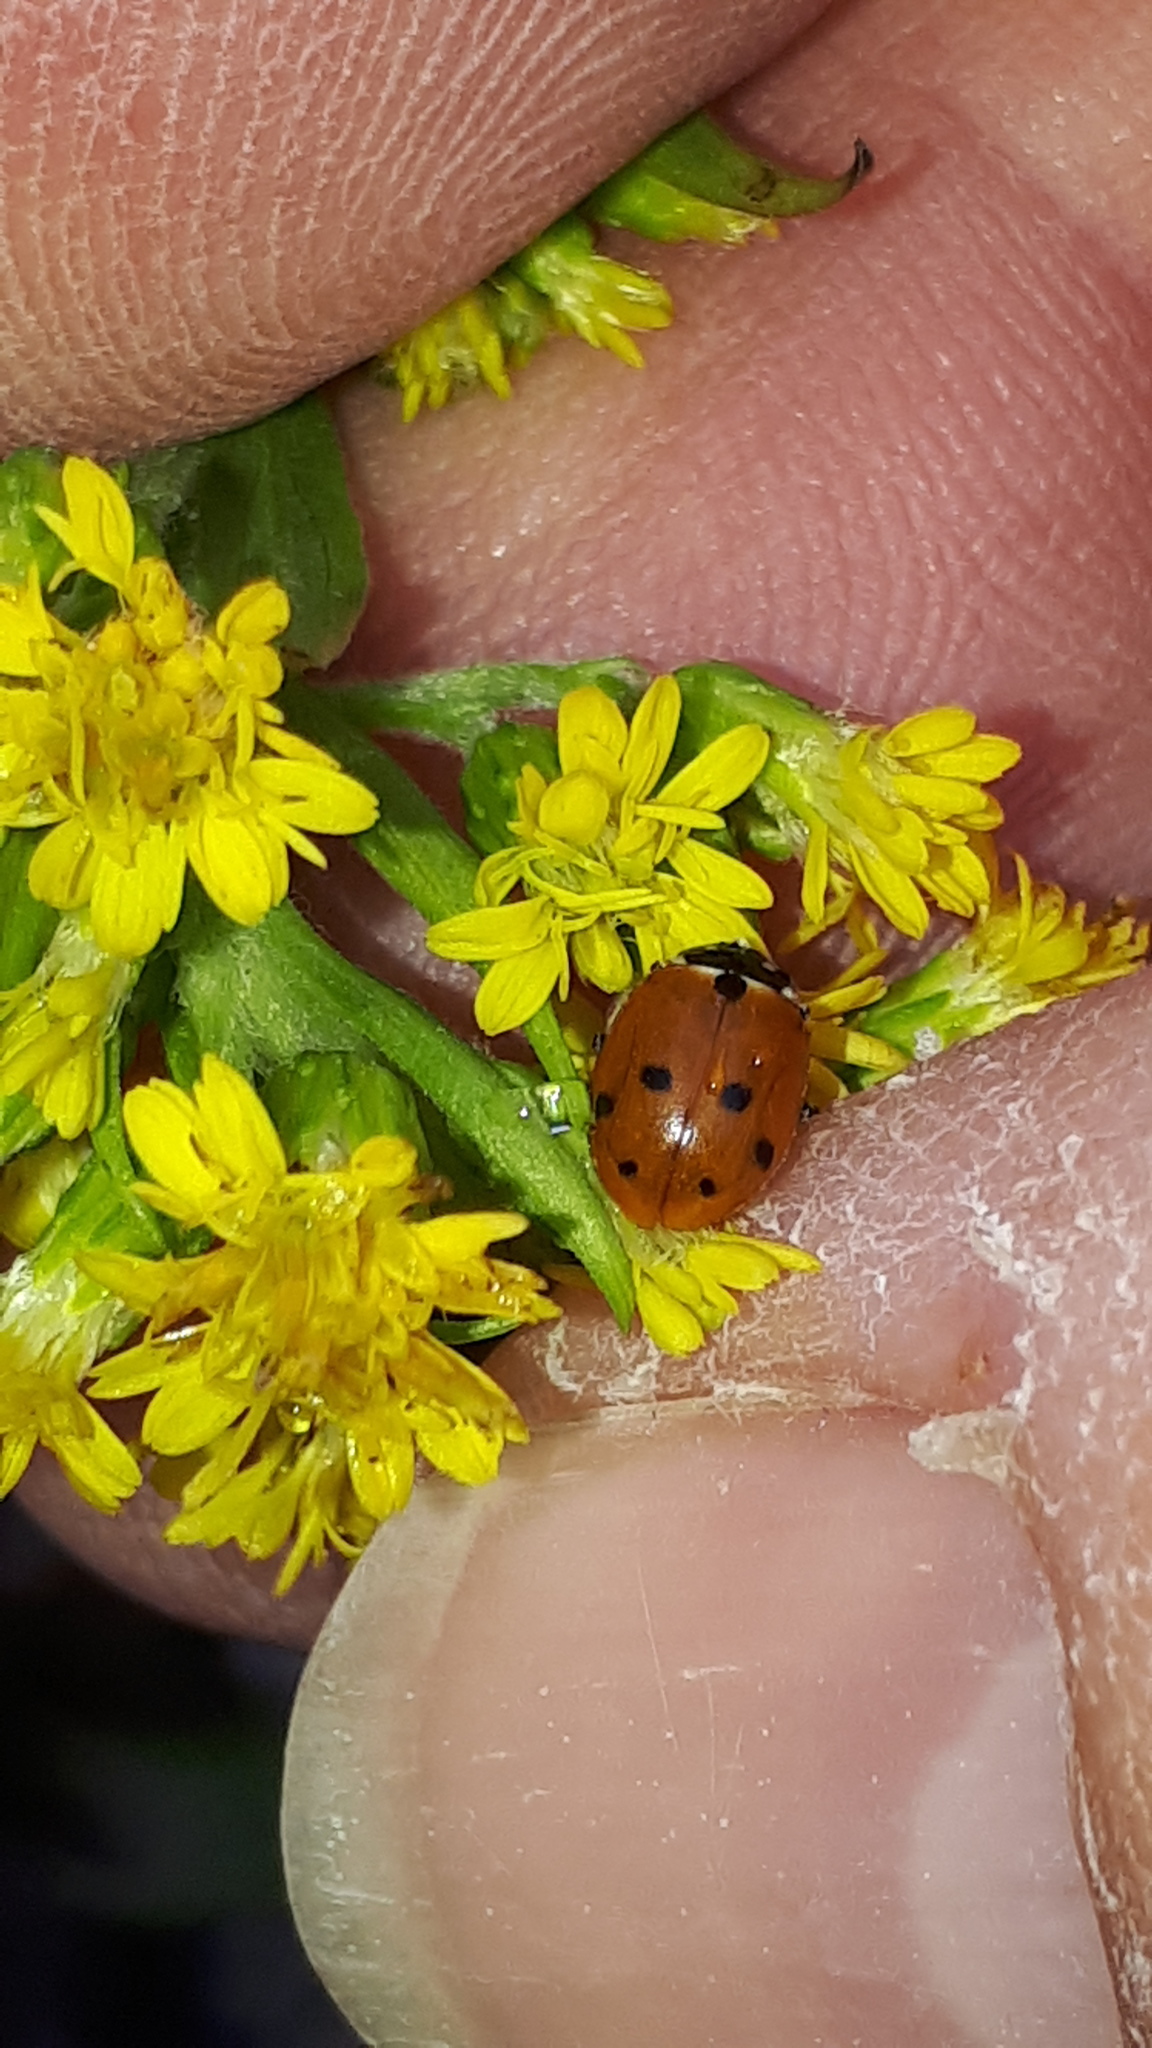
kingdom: Animalia
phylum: Arthropoda
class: Insecta
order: Coleoptera
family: Coccinellidae
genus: Hippodamia
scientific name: Hippodamia variegata
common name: Ladybird beetle
